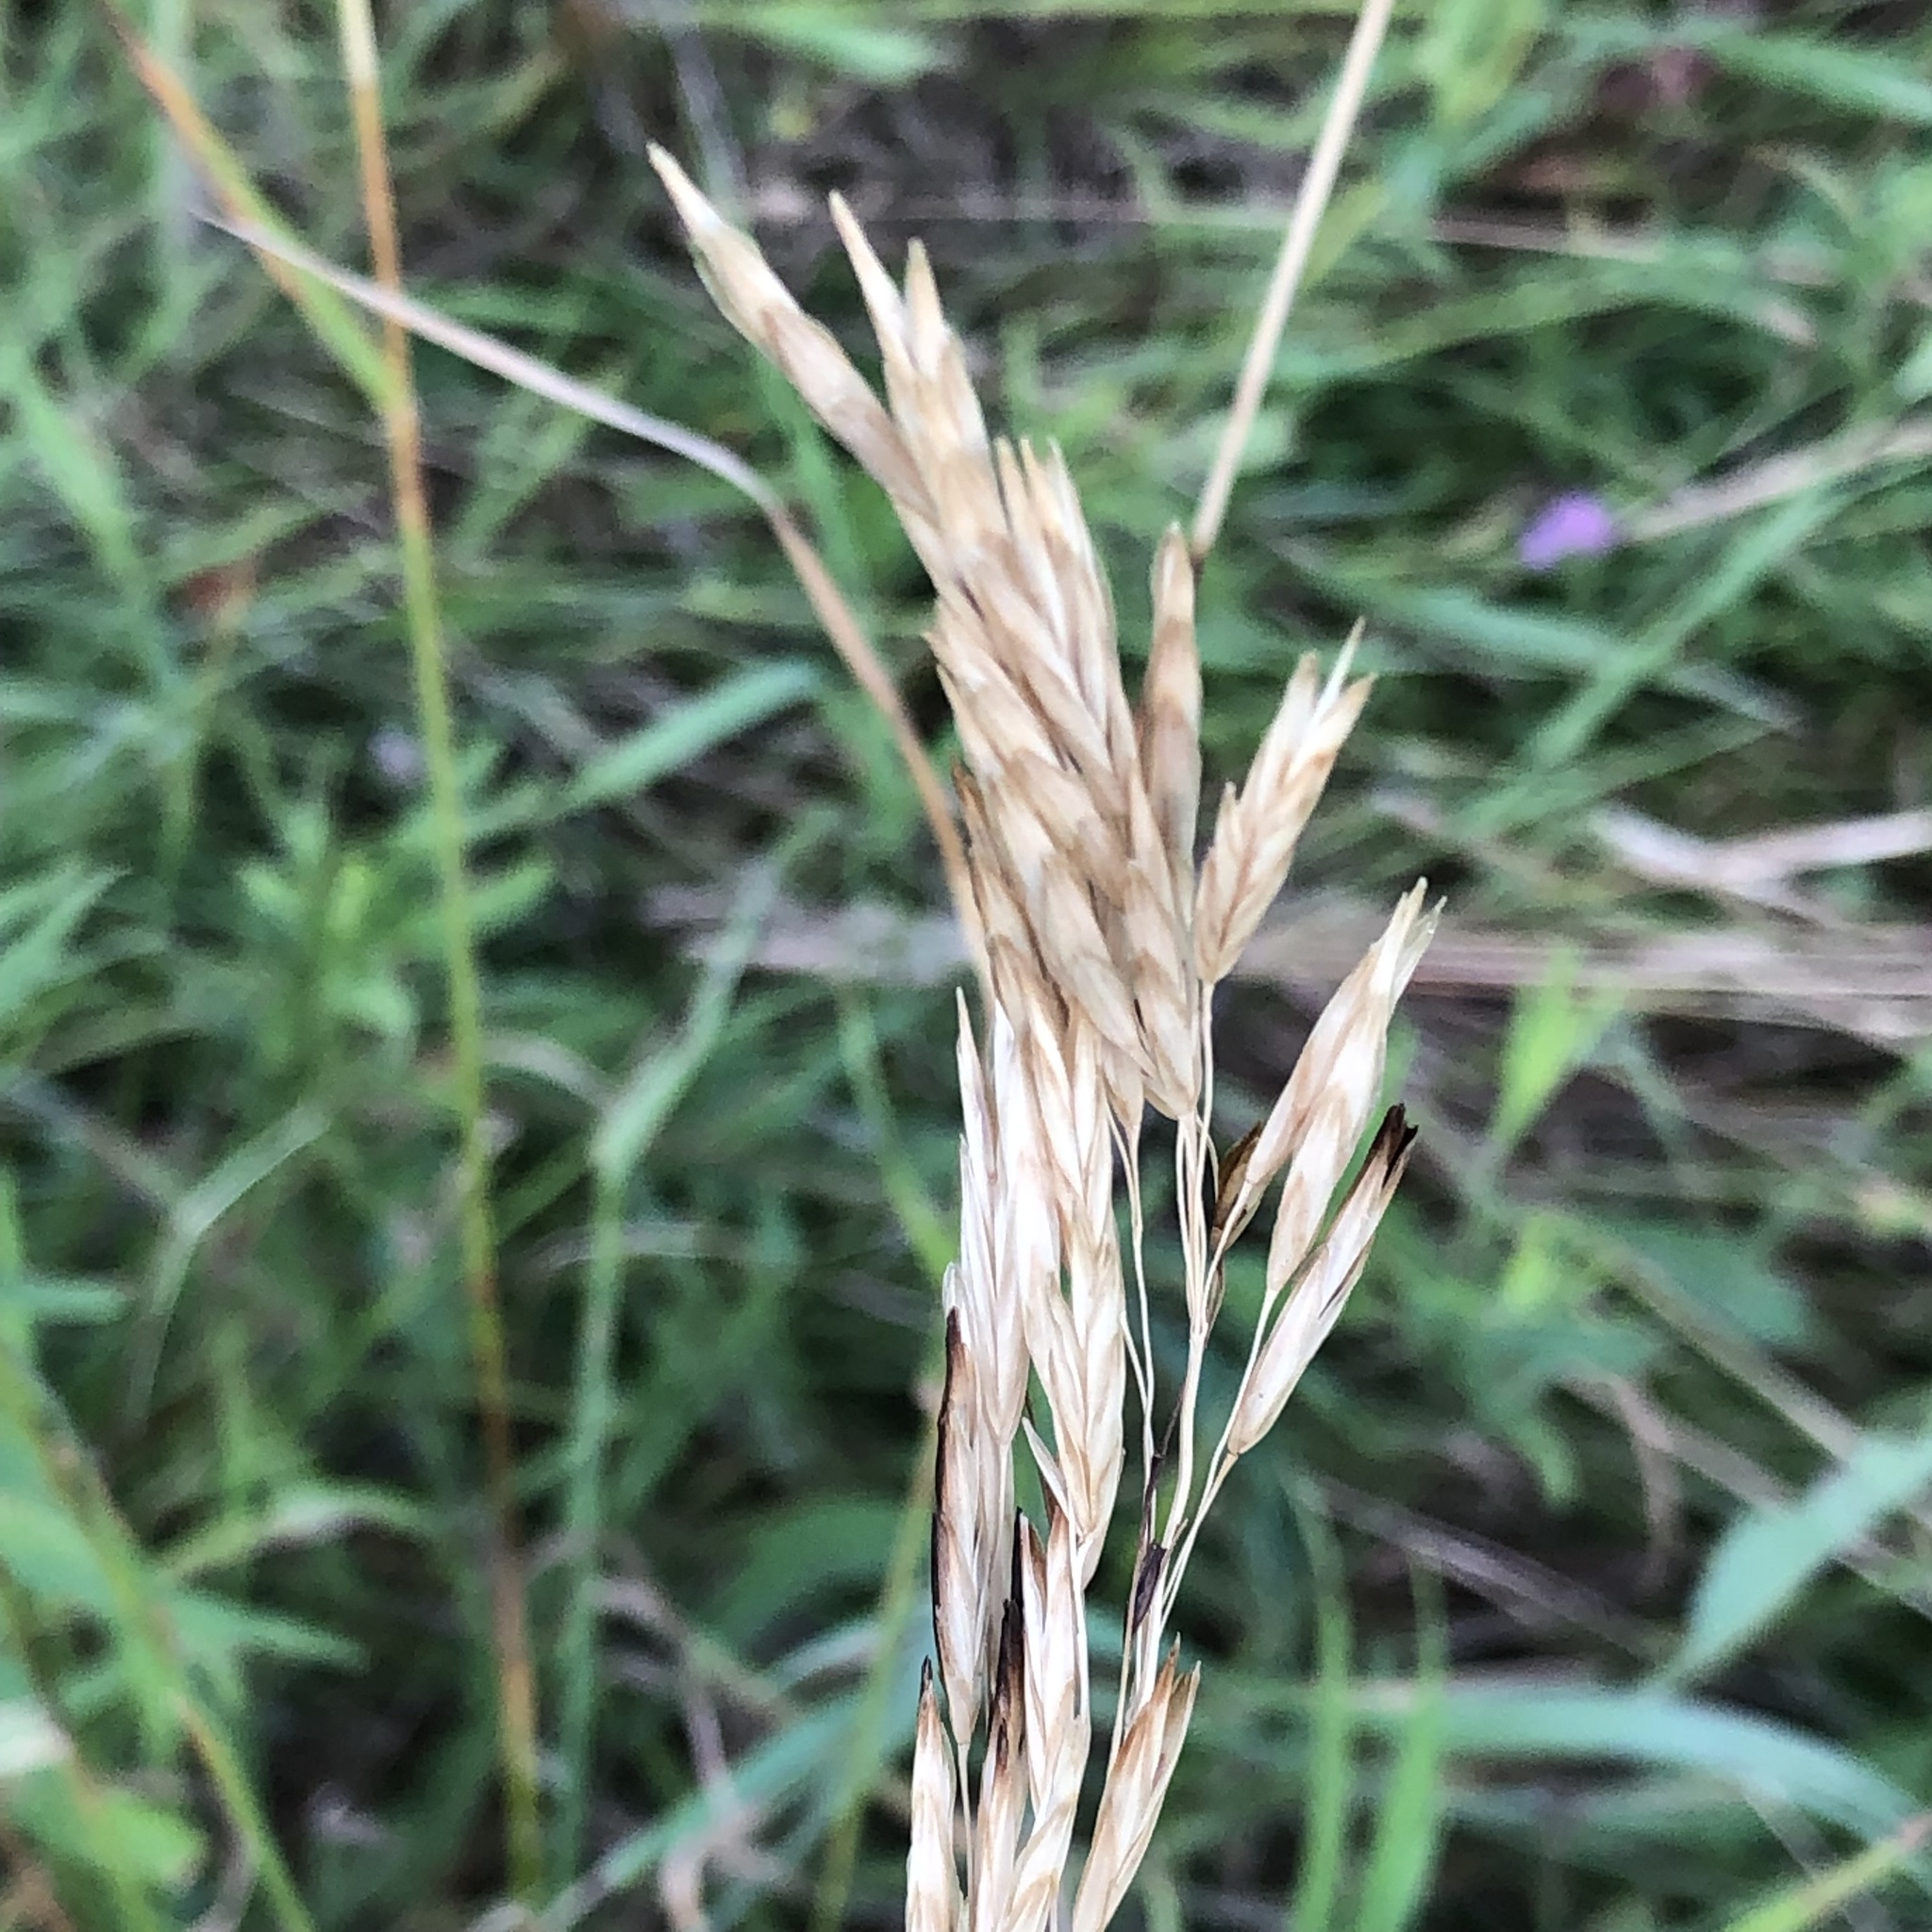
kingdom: Plantae
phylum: Tracheophyta
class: Liliopsida
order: Poales
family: Poaceae
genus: Bromus
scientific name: Bromus inermis
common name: Smooth brome
